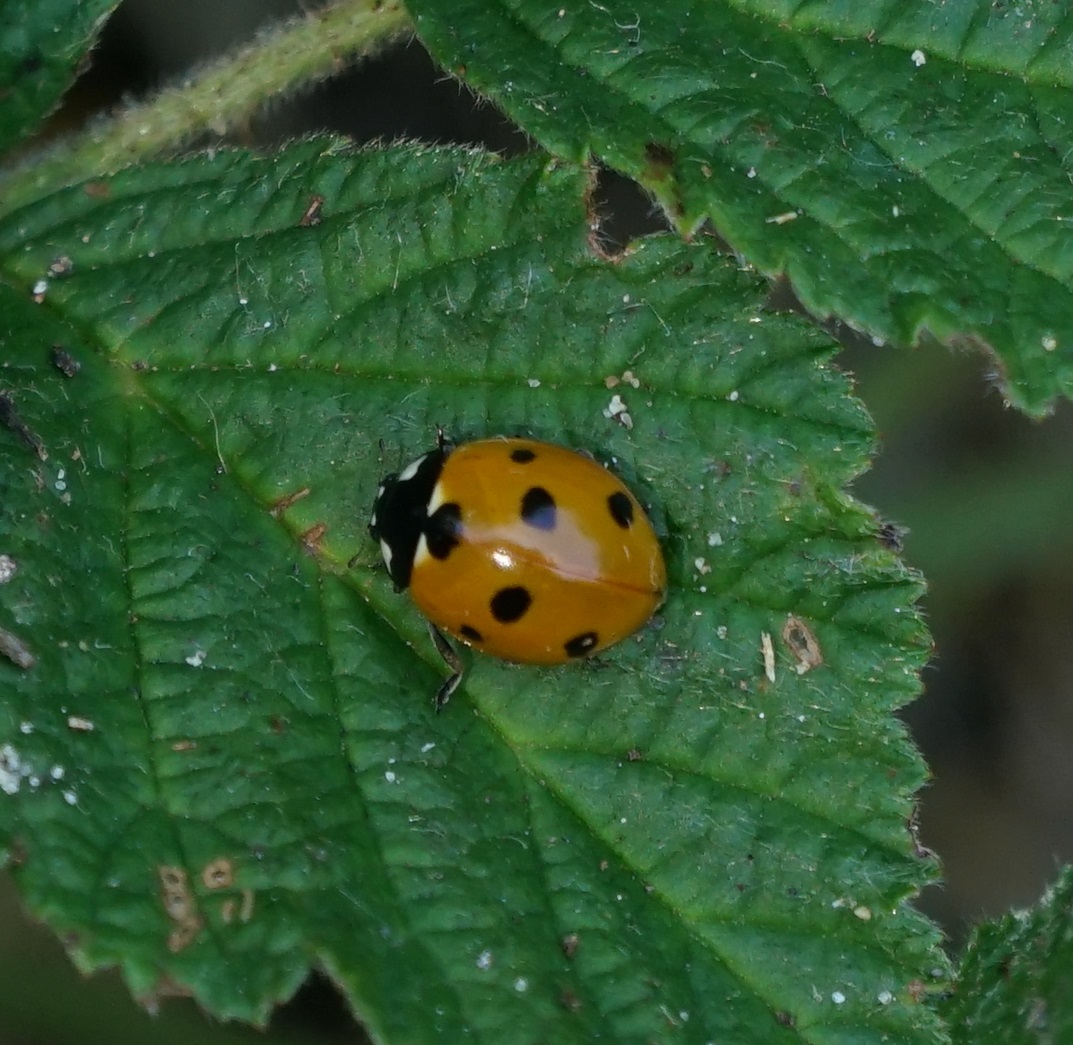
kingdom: Animalia
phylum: Arthropoda
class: Insecta
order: Coleoptera
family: Coccinellidae
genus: Coccinella
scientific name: Coccinella septempunctata
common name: Sevenspotted lady beetle
